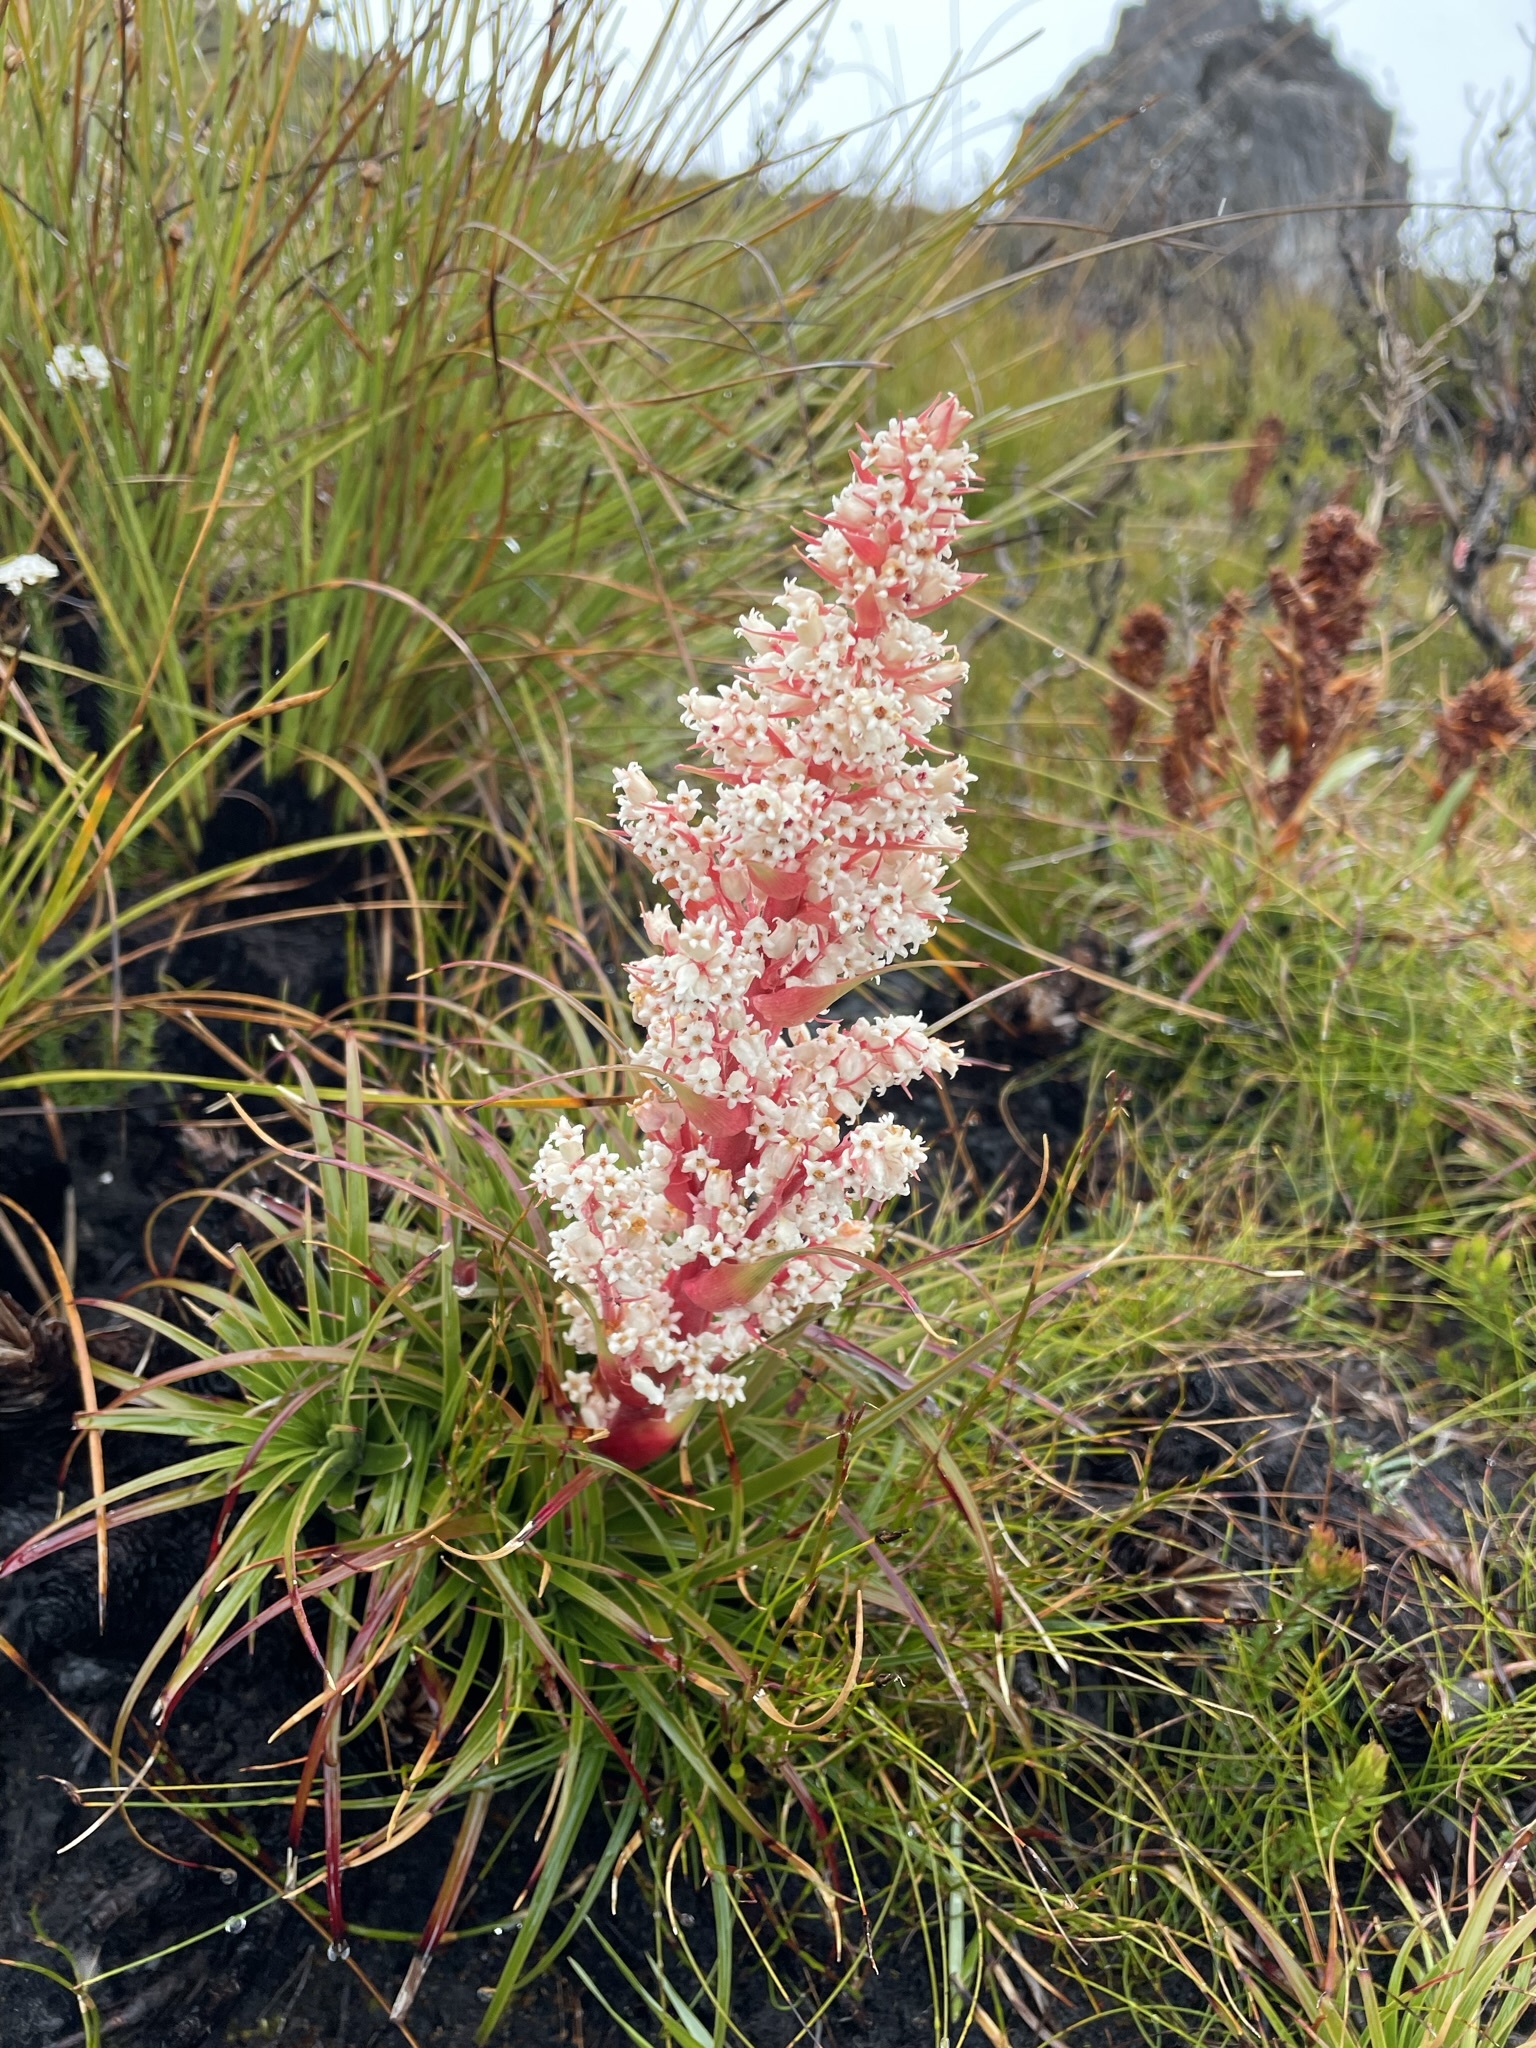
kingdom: Plantae
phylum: Tracheophyta
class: Magnoliopsida
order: Ericales
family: Ericaceae
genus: Dracophyllum
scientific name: Dracophyllum milliganii
